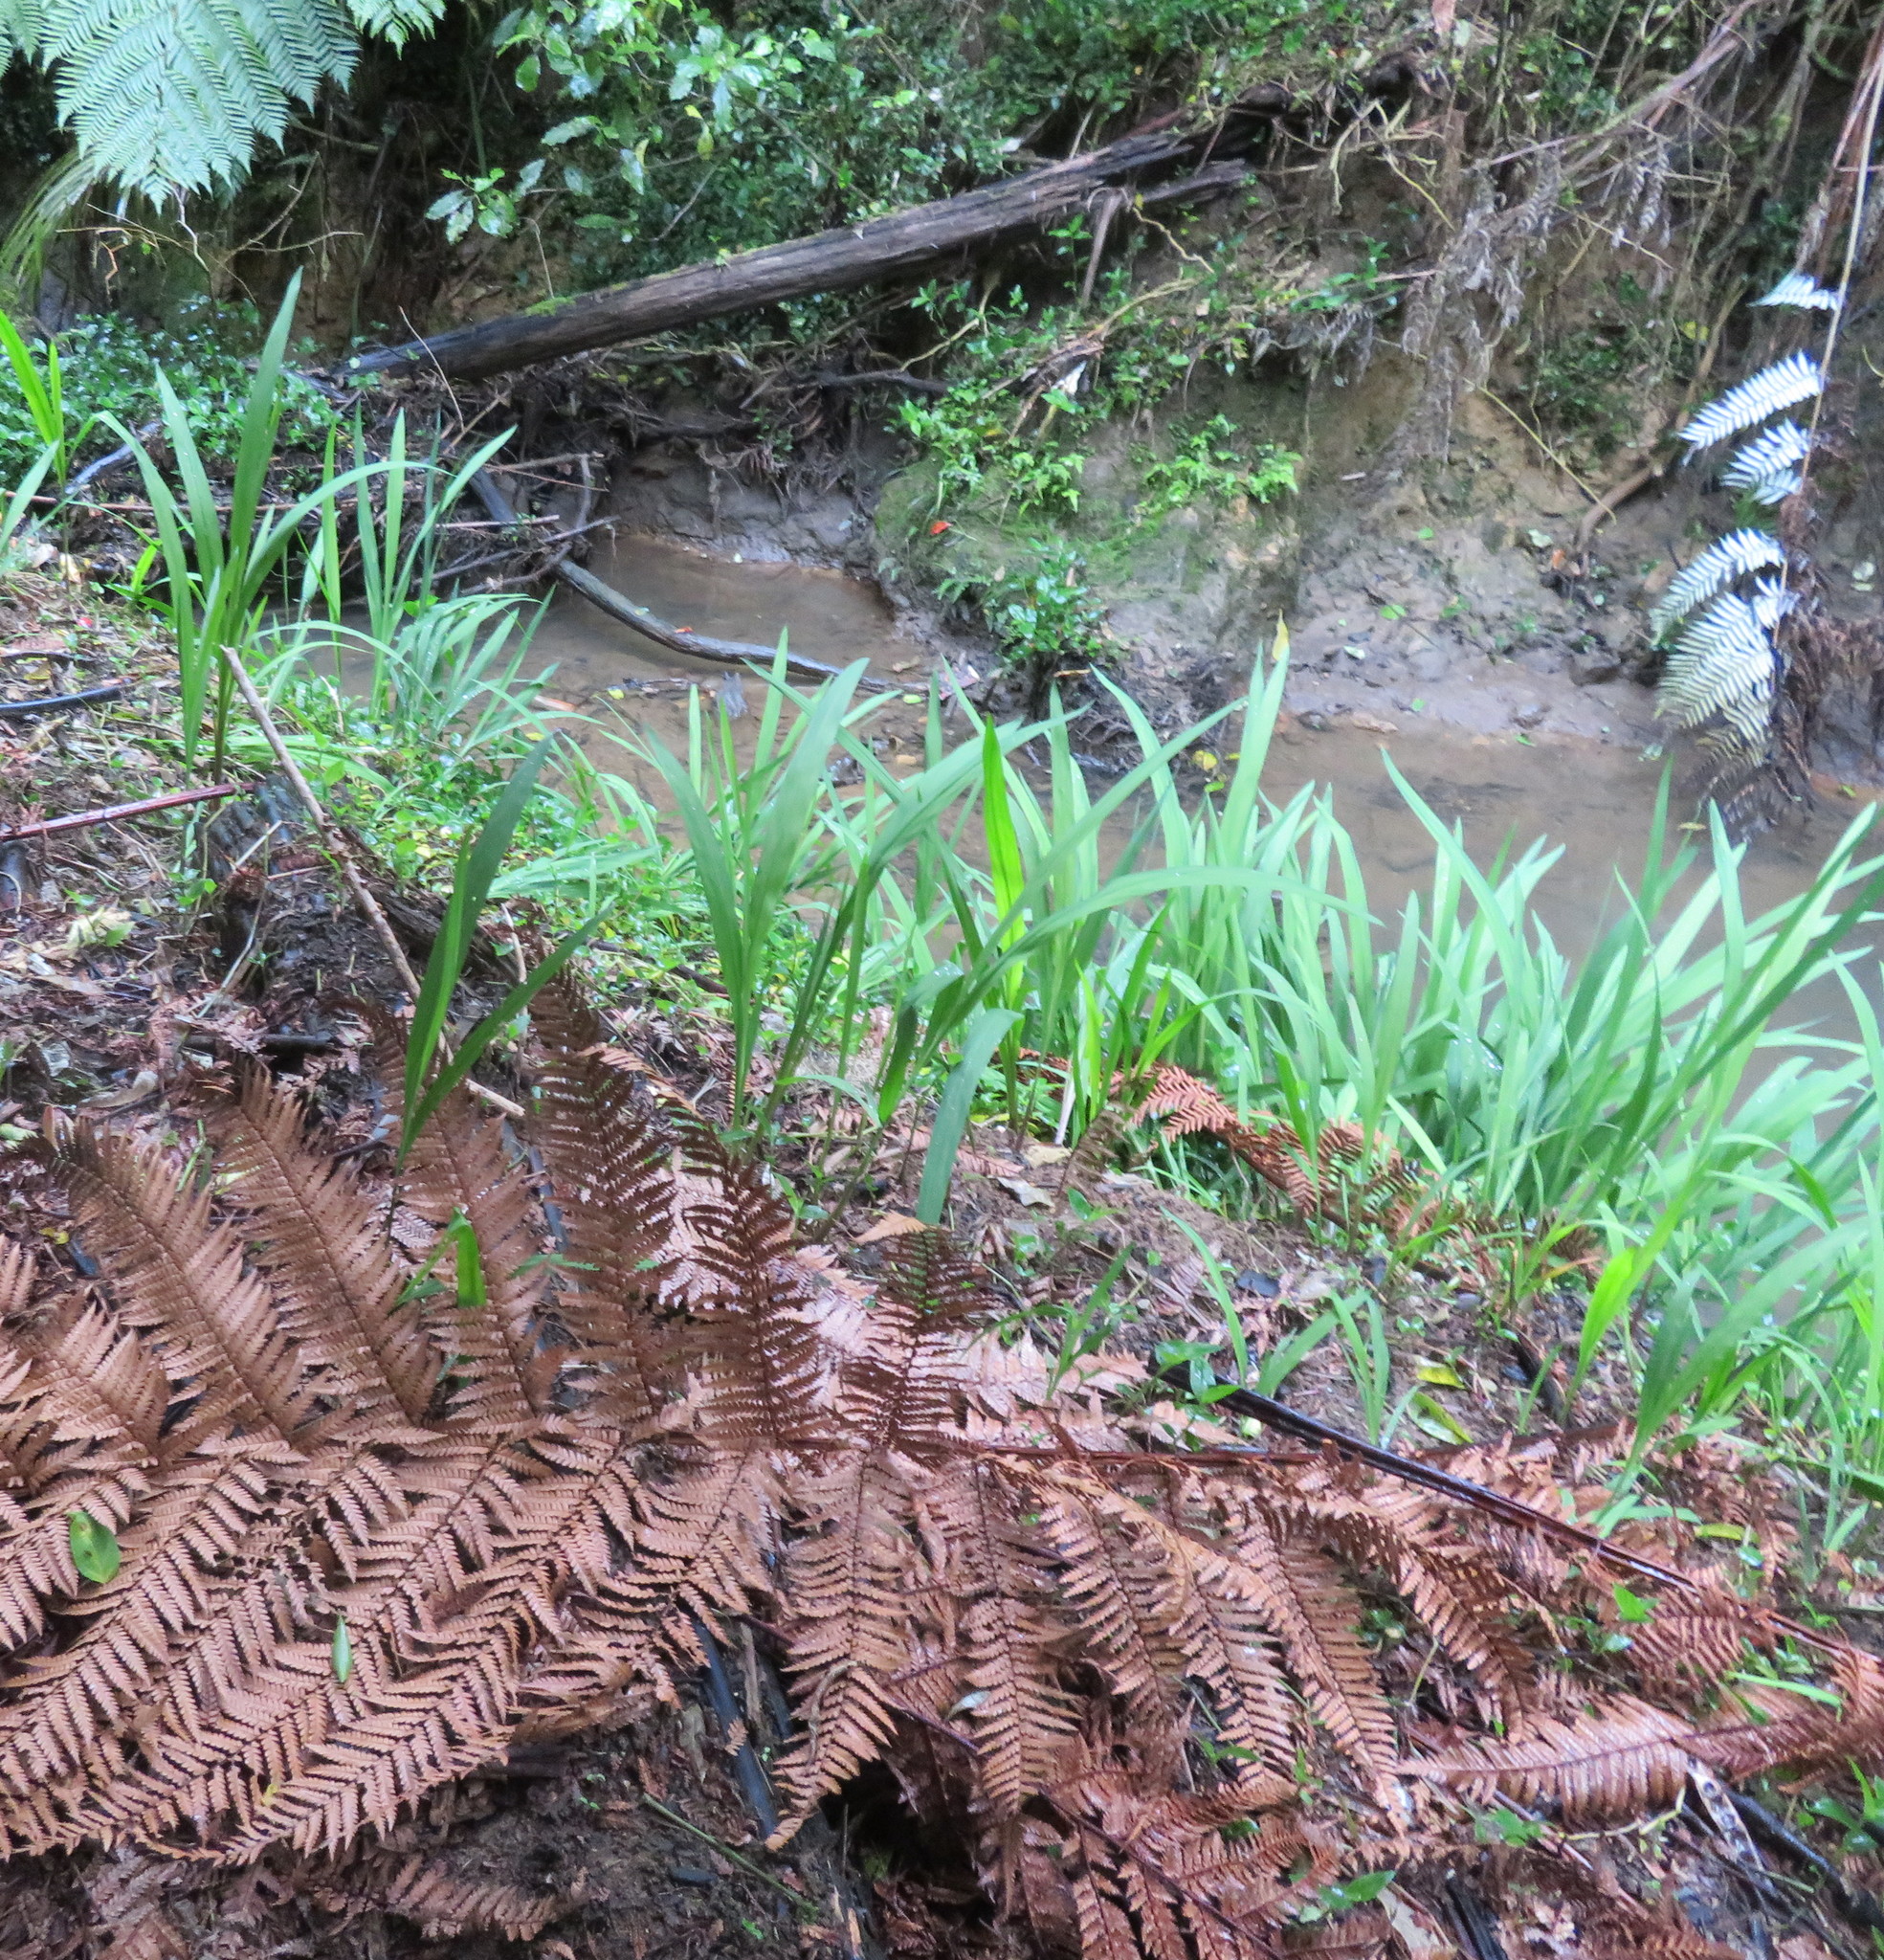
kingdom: Plantae
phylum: Tracheophyta
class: Liliopsida
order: Asparagales
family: Iridaceae
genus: Crocosmia
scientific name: Crocosmia crocosmiiflora
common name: Montbretia
